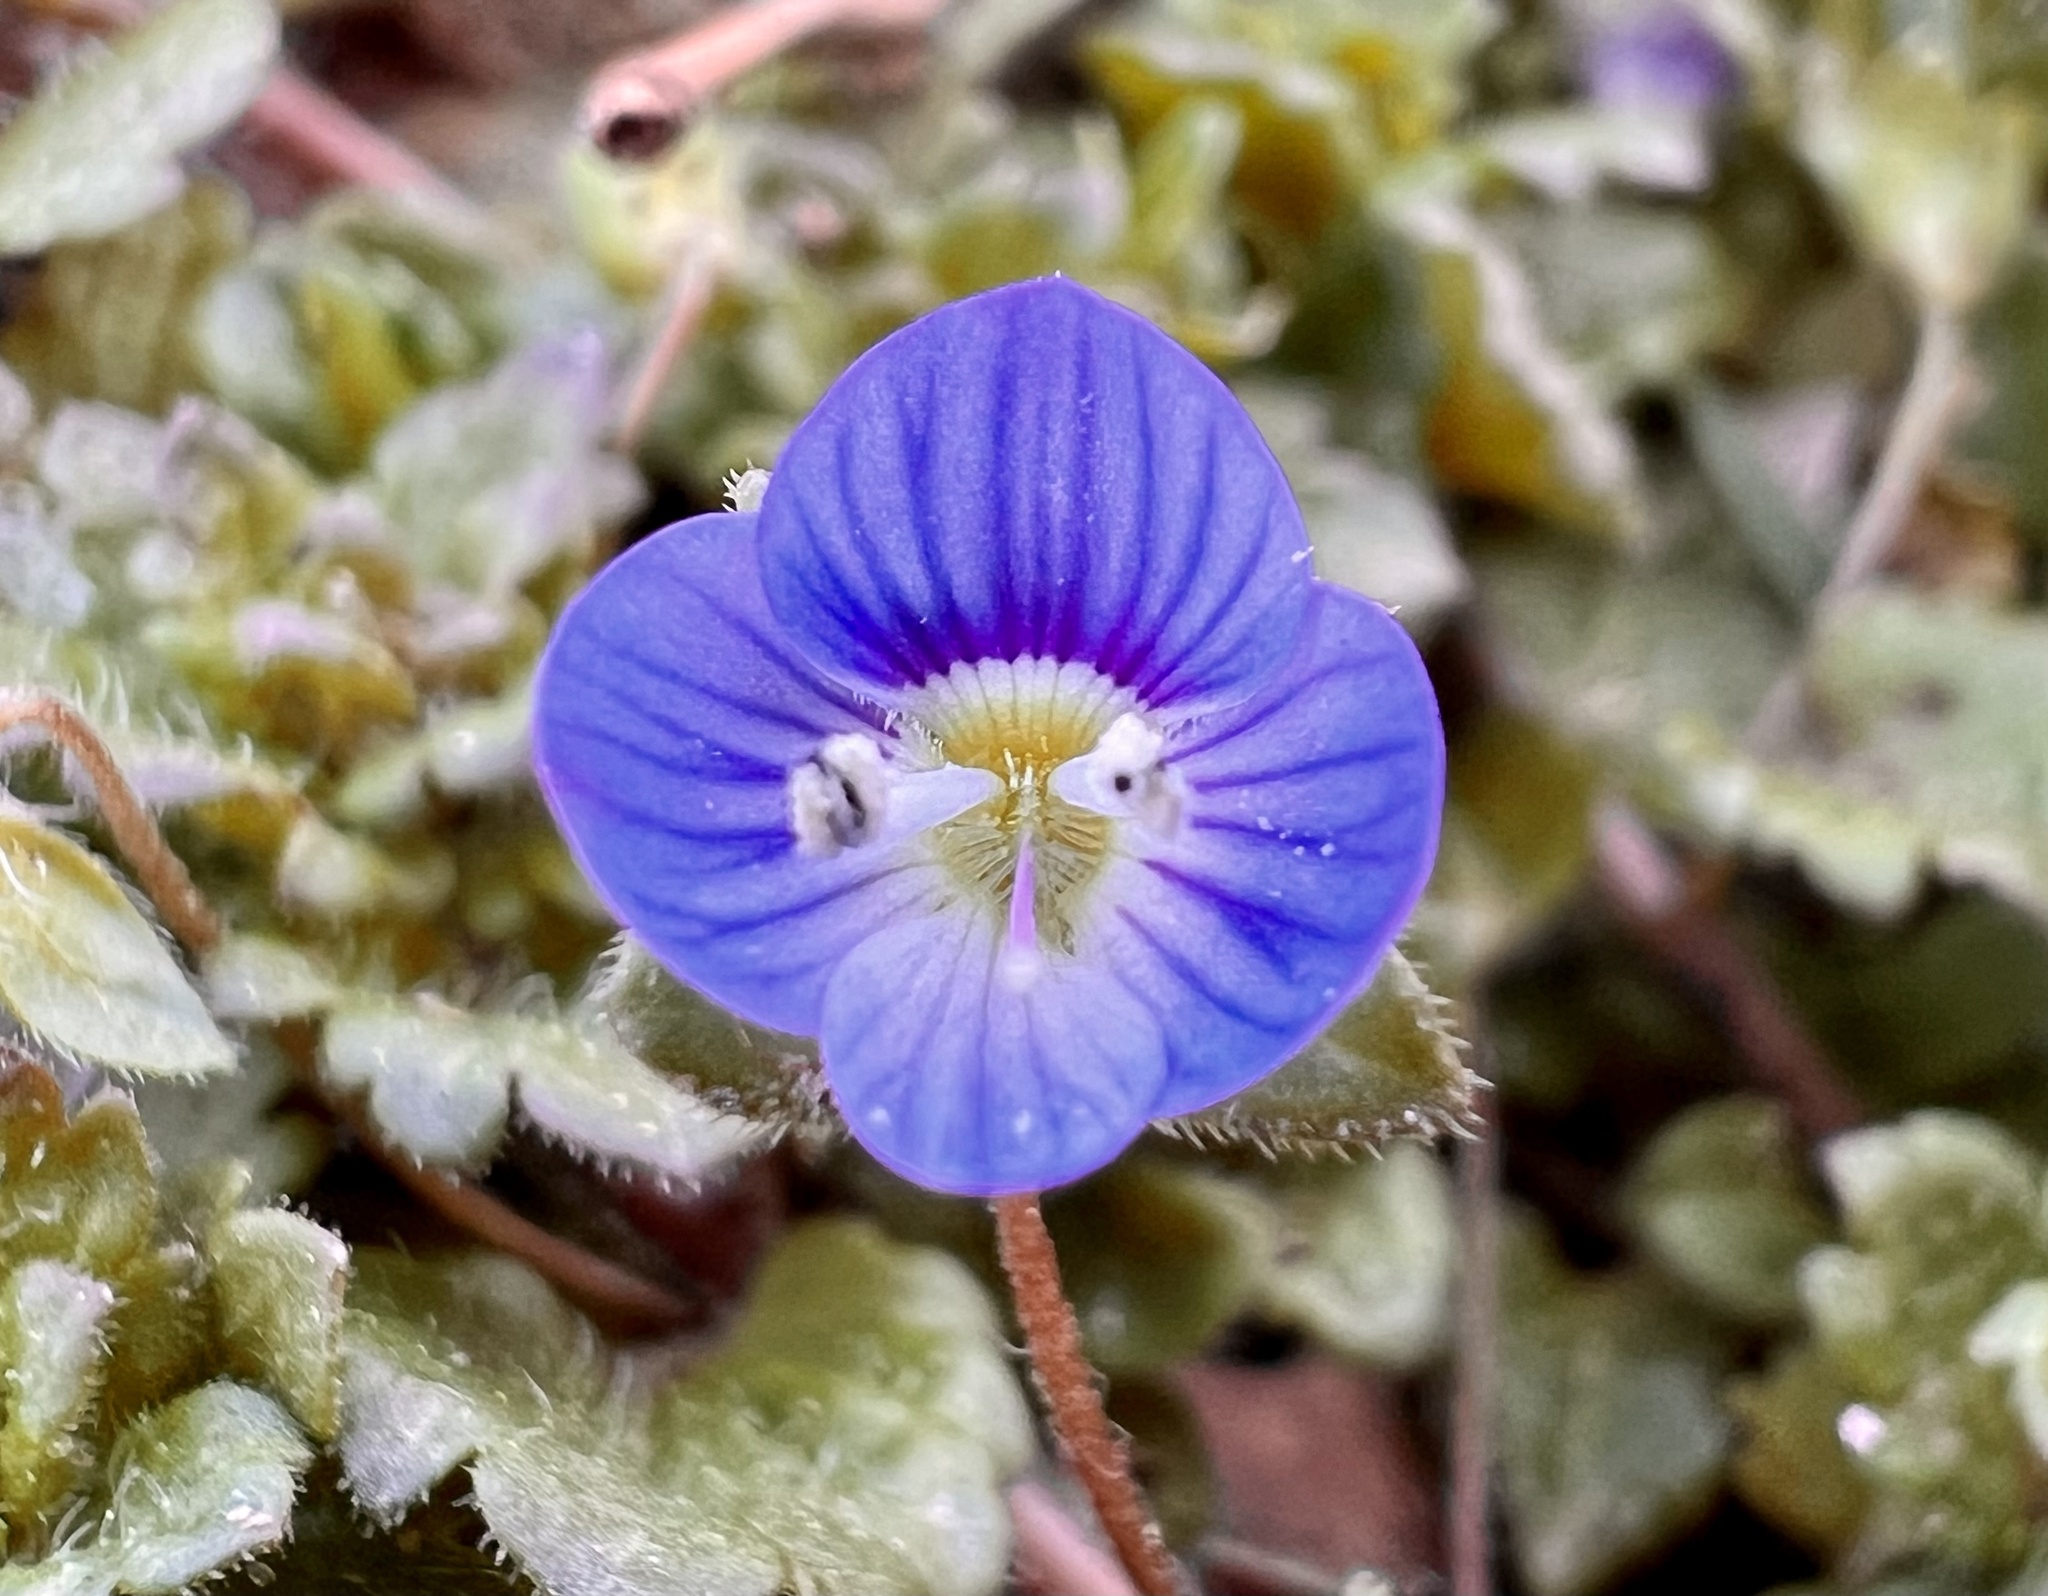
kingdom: Plantae
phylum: Tracheophyta
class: Magnoliopsida
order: Lamiales
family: Plantaginaceae
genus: Veronica
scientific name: Veronica persica
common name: Common field-speedwell
